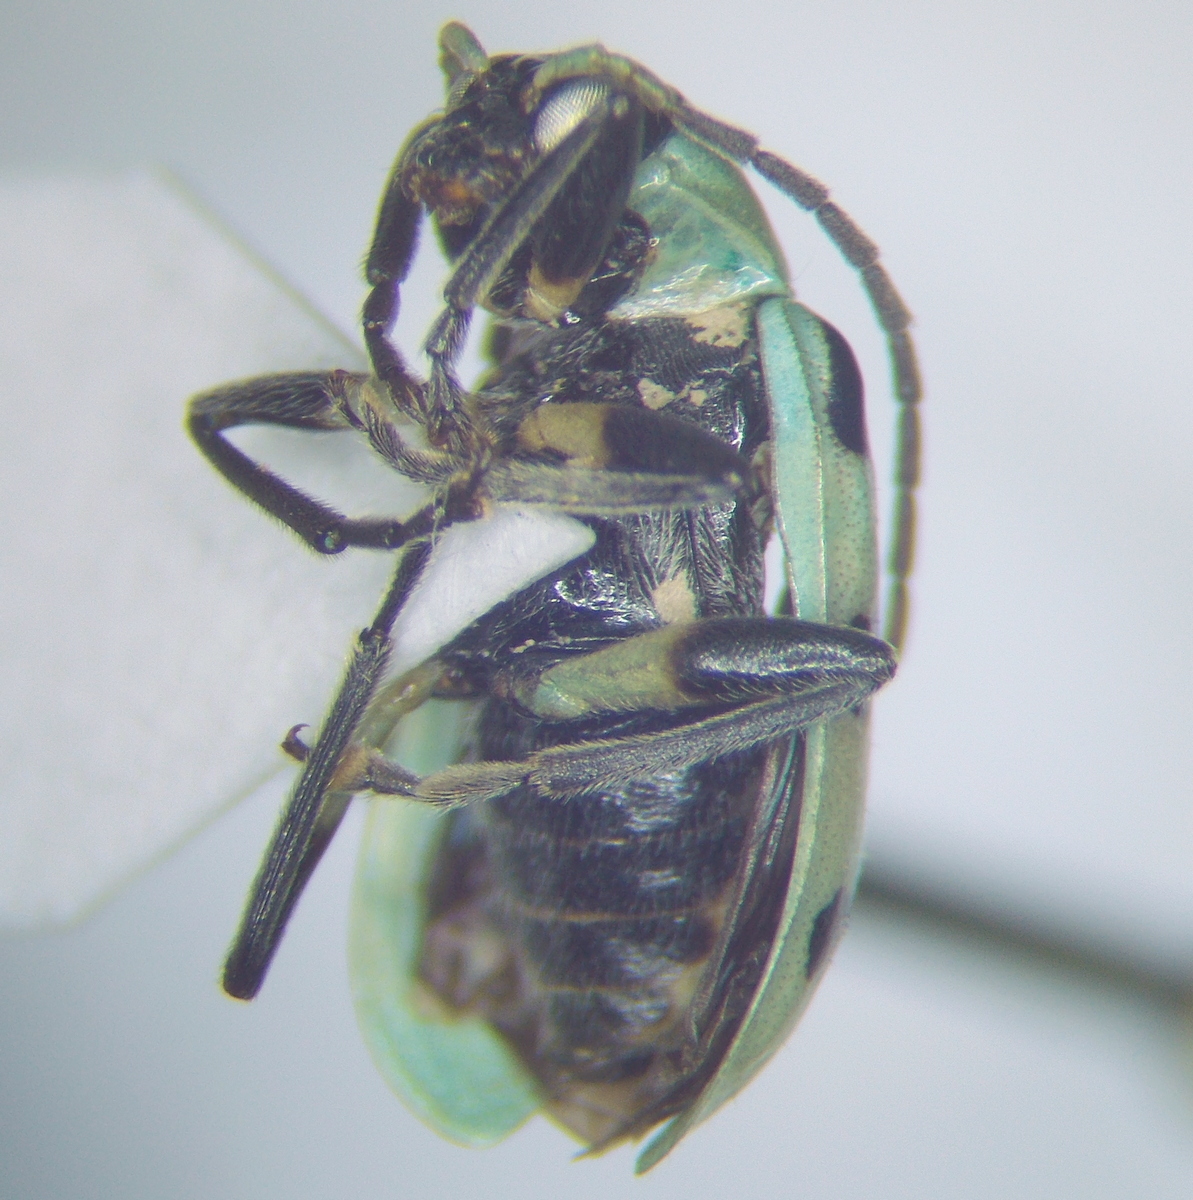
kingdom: Animalia
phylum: Arthropoda
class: Insecta
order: Coleoptera
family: Chrysomelidae
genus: Diabrotica
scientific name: Diabrotica undecimpunctata
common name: Spotted cucumber beetle
